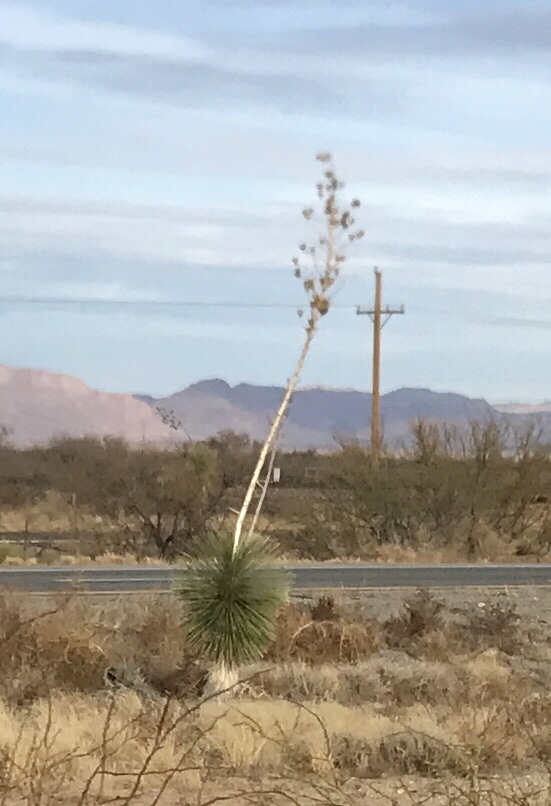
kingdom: Plantae
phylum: Tracheophyta
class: Liliopsida
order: Asparagales
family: Asparagaceae
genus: Yucca
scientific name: Yucca elata
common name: Palmella
